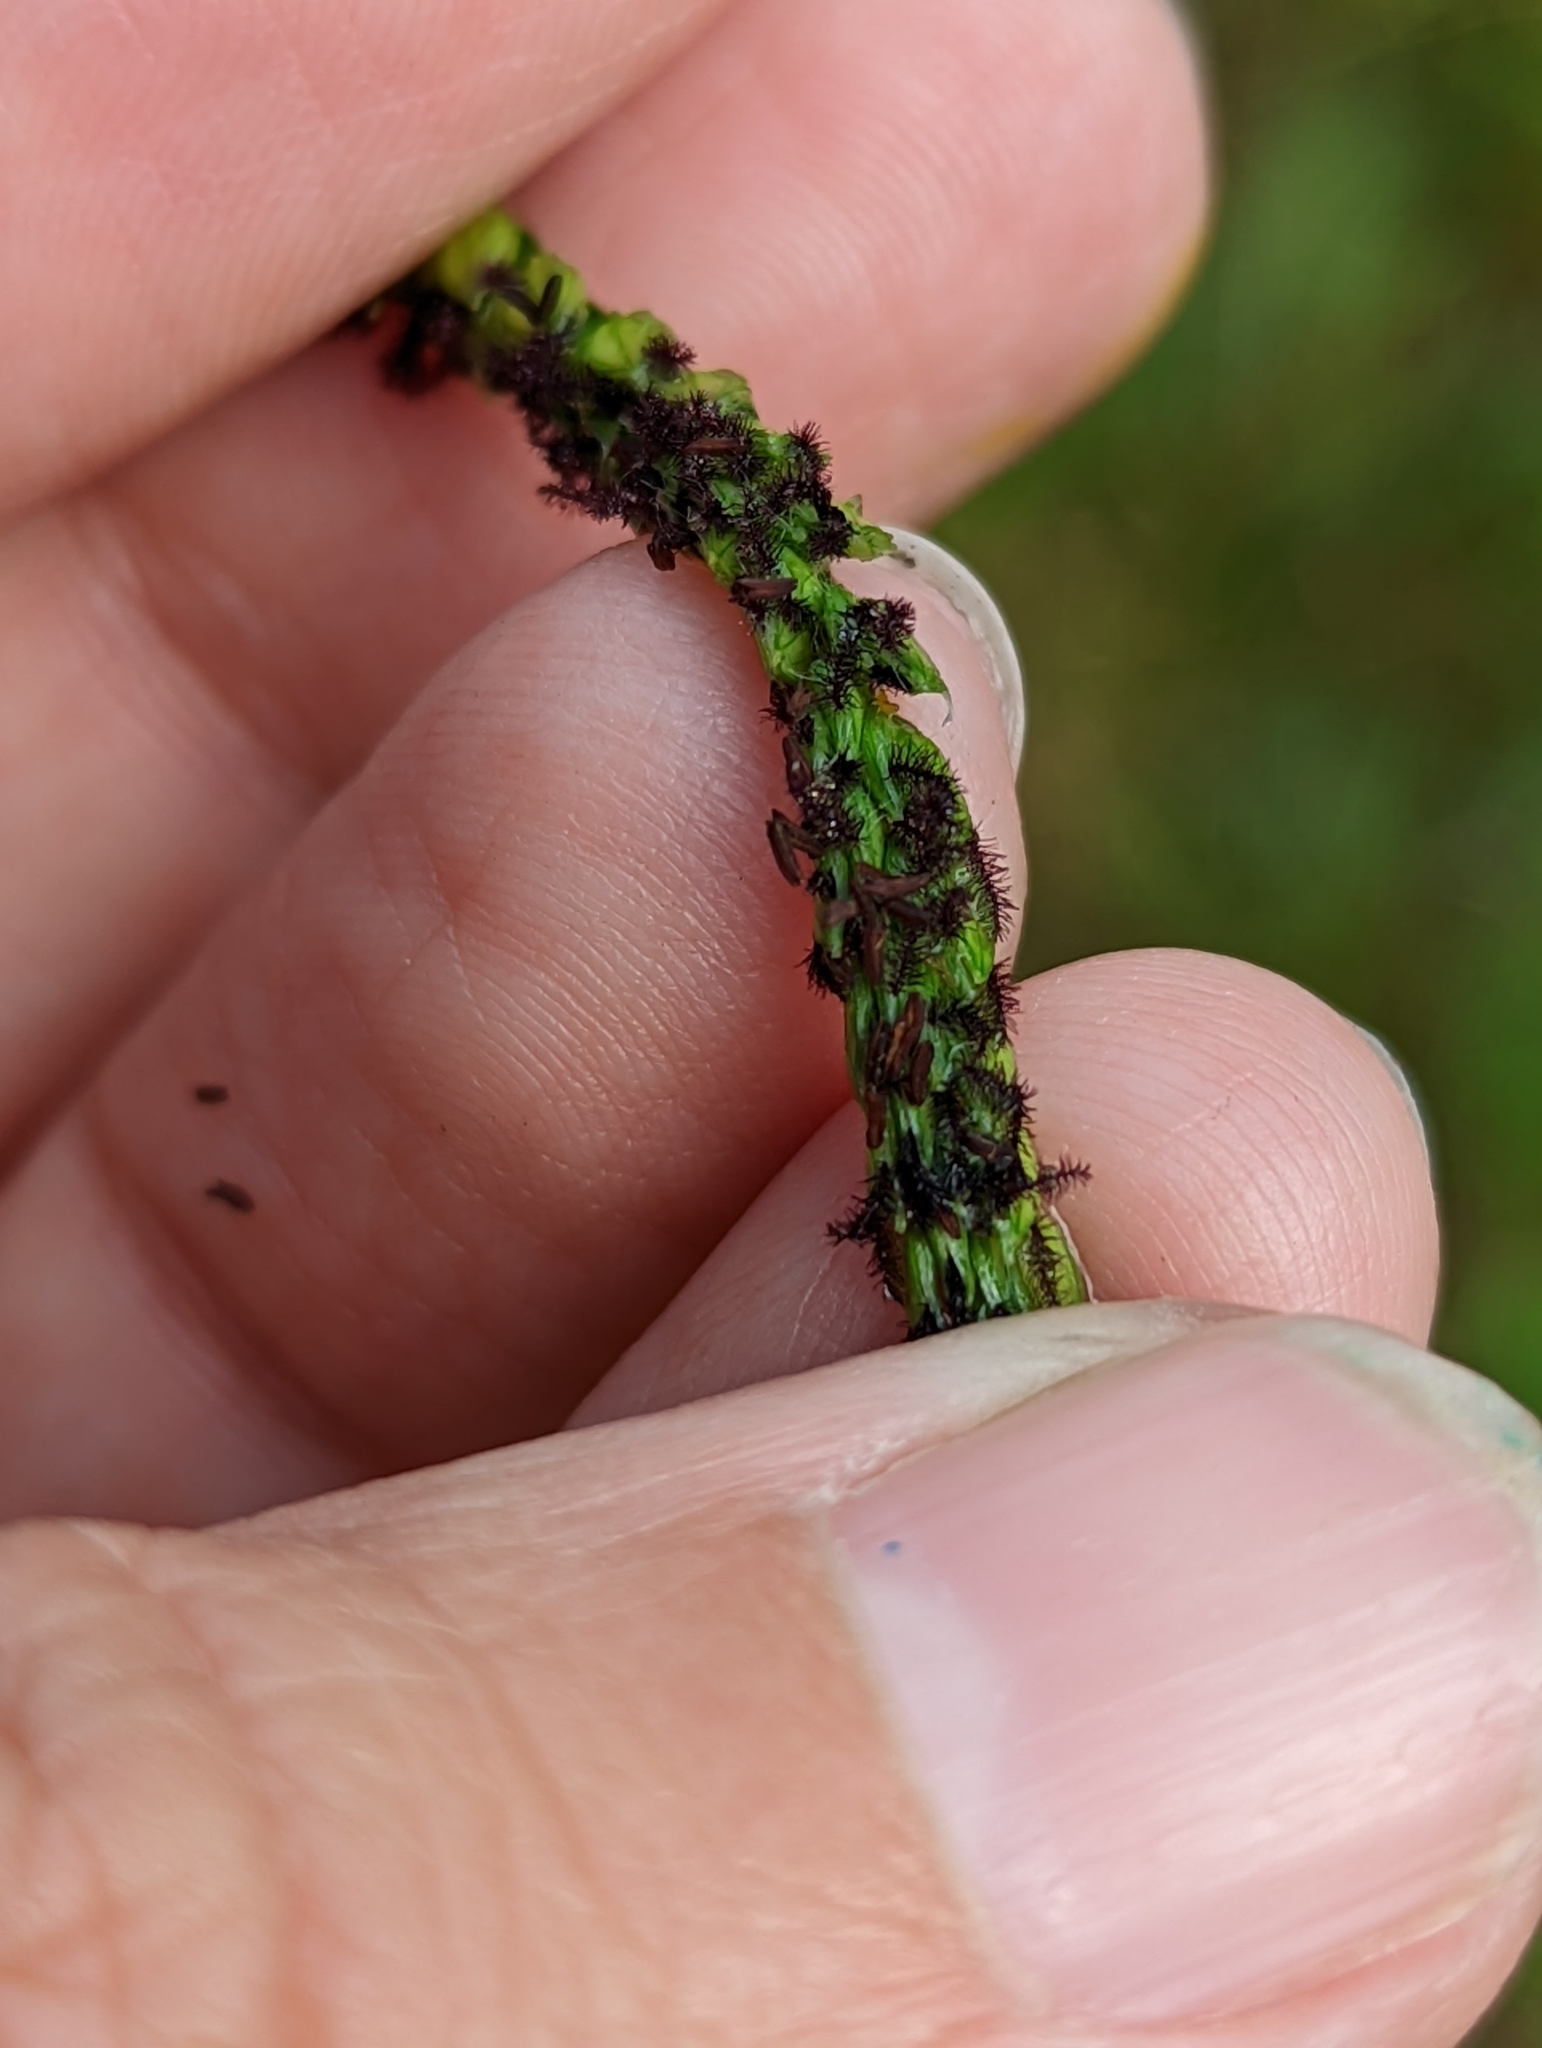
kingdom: Plantae
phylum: Tracheophyta
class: Liliopsida
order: Poales
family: Poaceae
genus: Paspalum
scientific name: Paspalum dilatatum
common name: Dallisgrass
